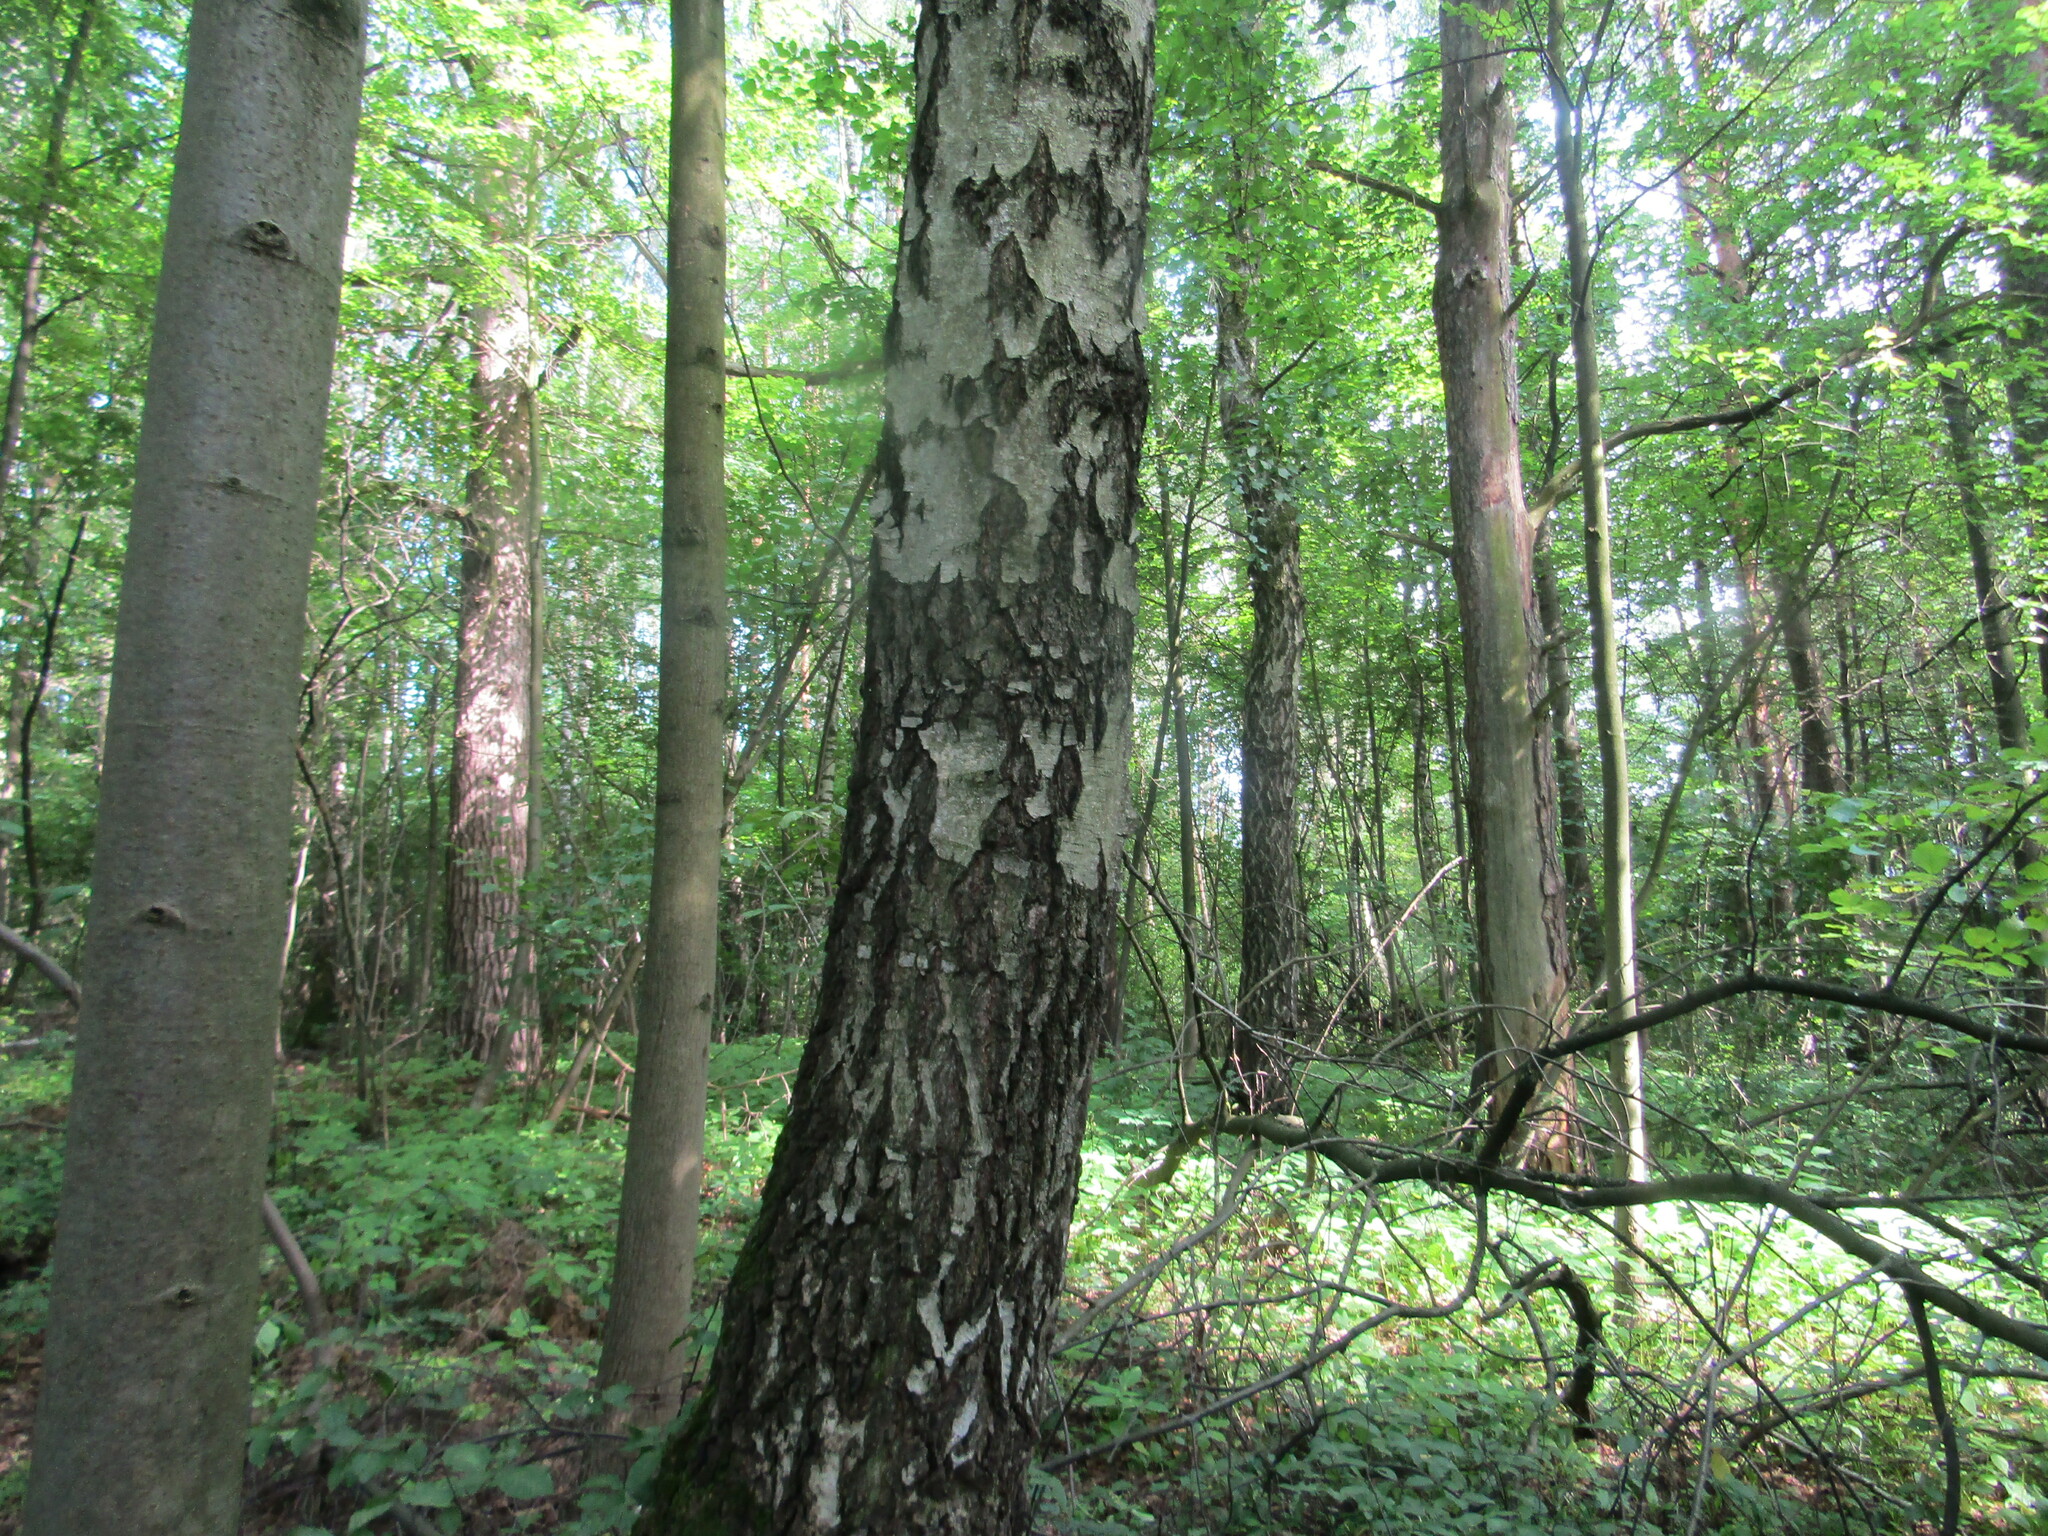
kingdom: Plantae
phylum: Tracheophyta
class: Magnoliopsida
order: Fagales
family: Betulaceae
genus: Betula
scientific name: Betula pendula
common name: Silver birch
